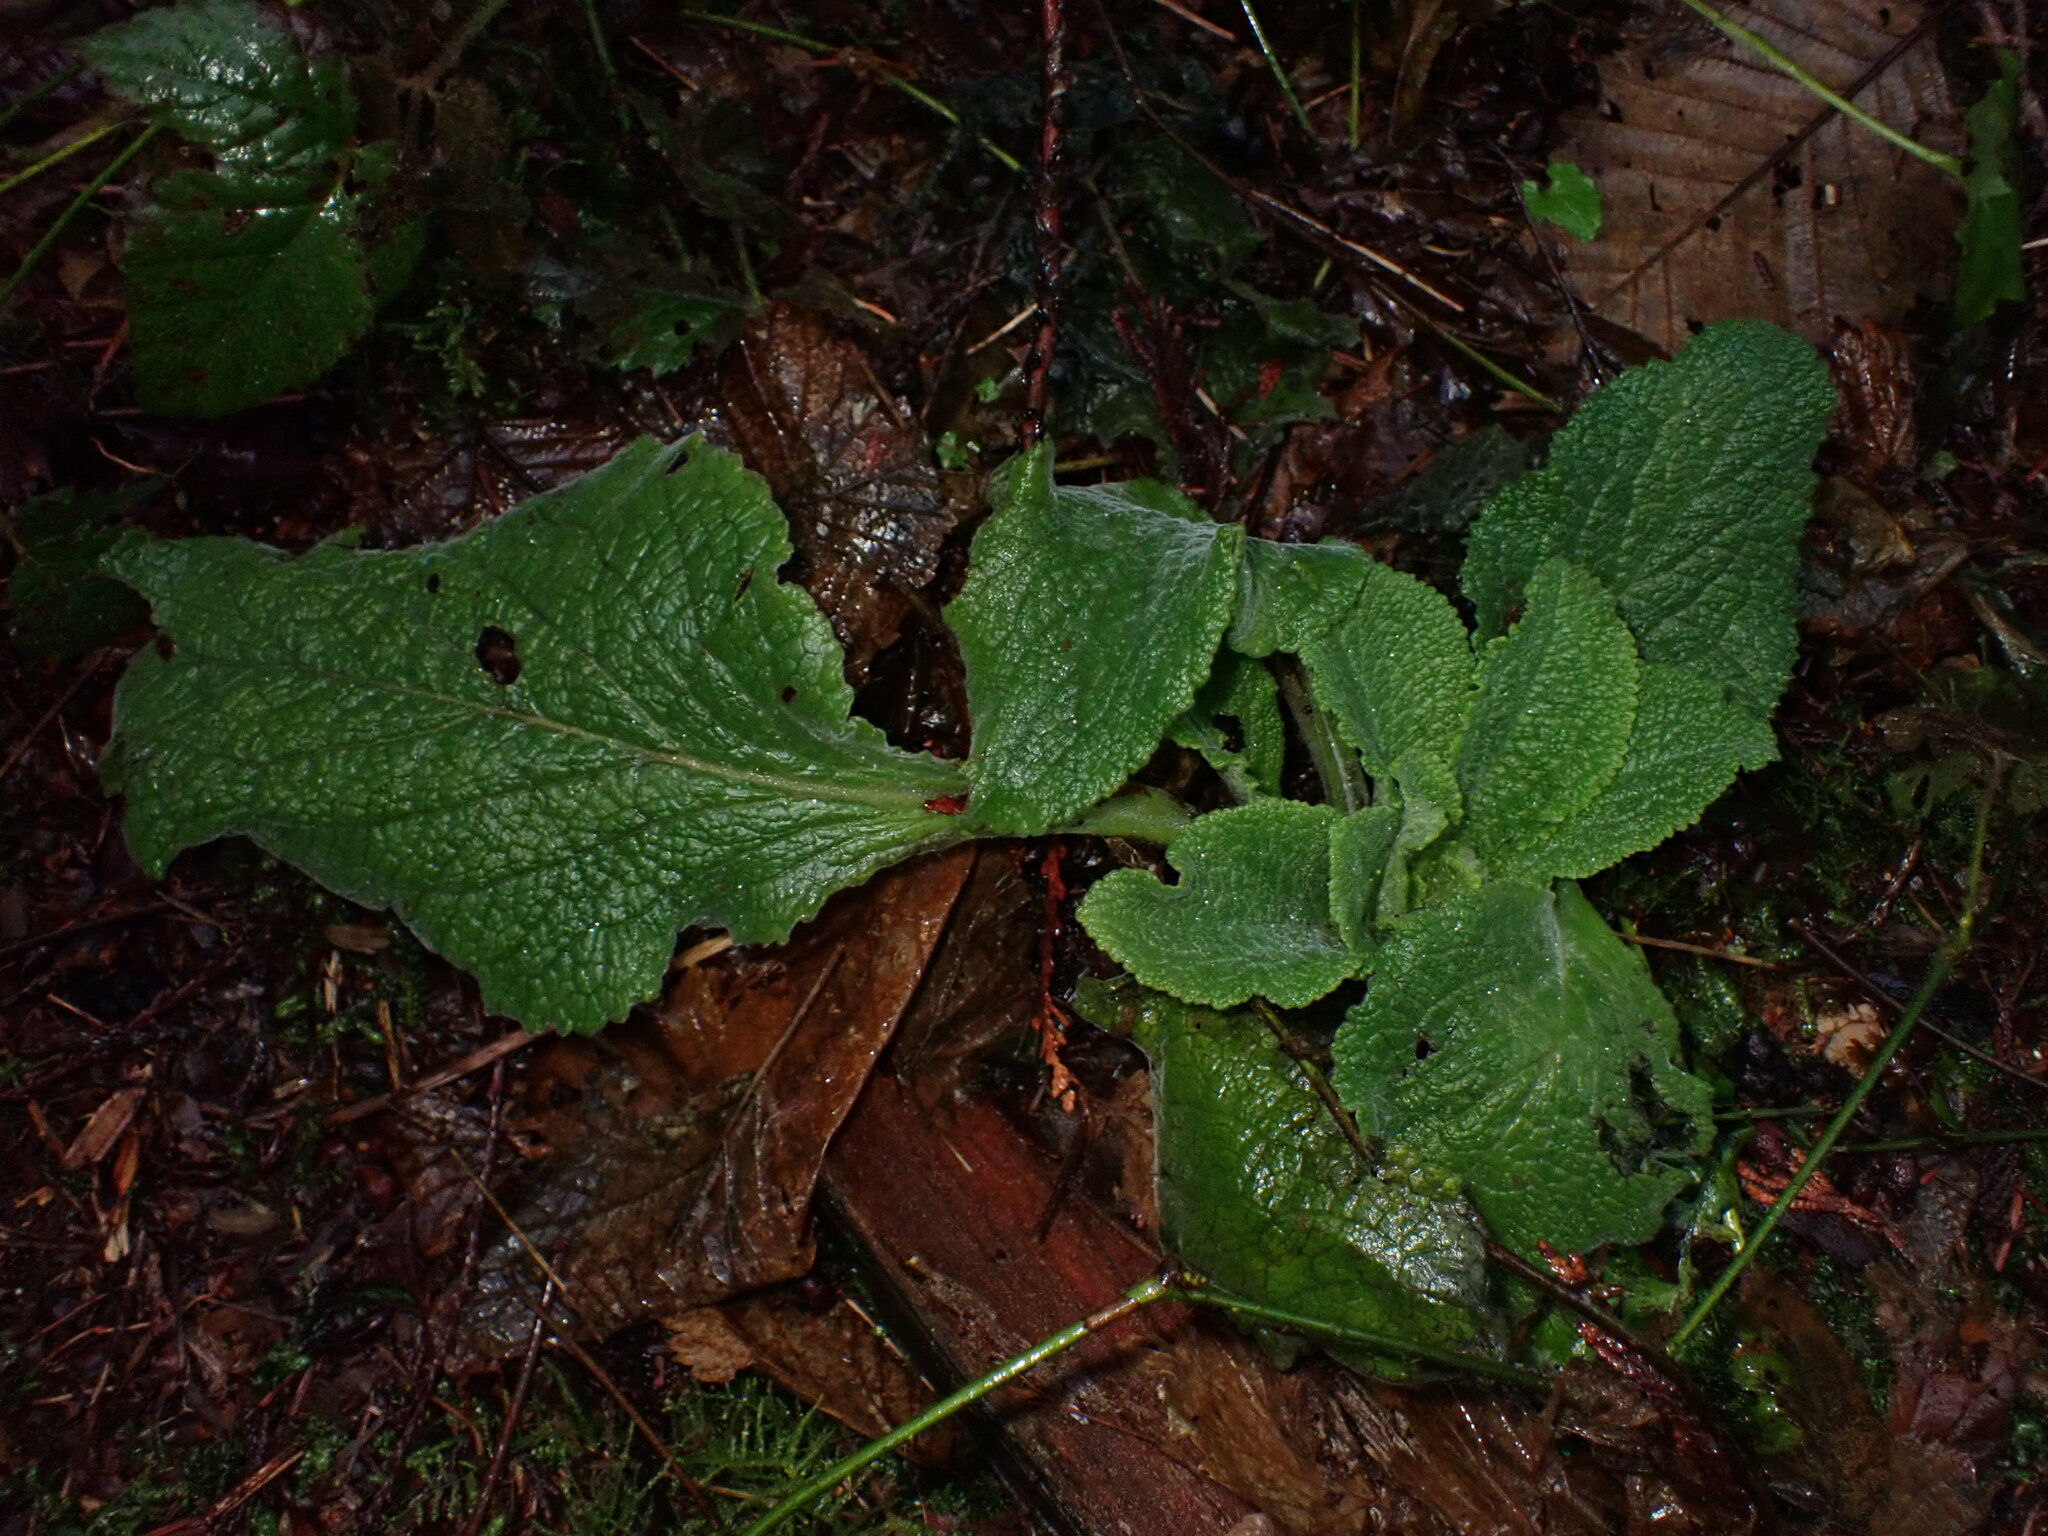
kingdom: Plantae
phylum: Tracheophyta
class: Magnoliopsida
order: Lamiales
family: Plantaginaceae
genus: Digitalis
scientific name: Digitalis purpurea
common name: Foxglove
